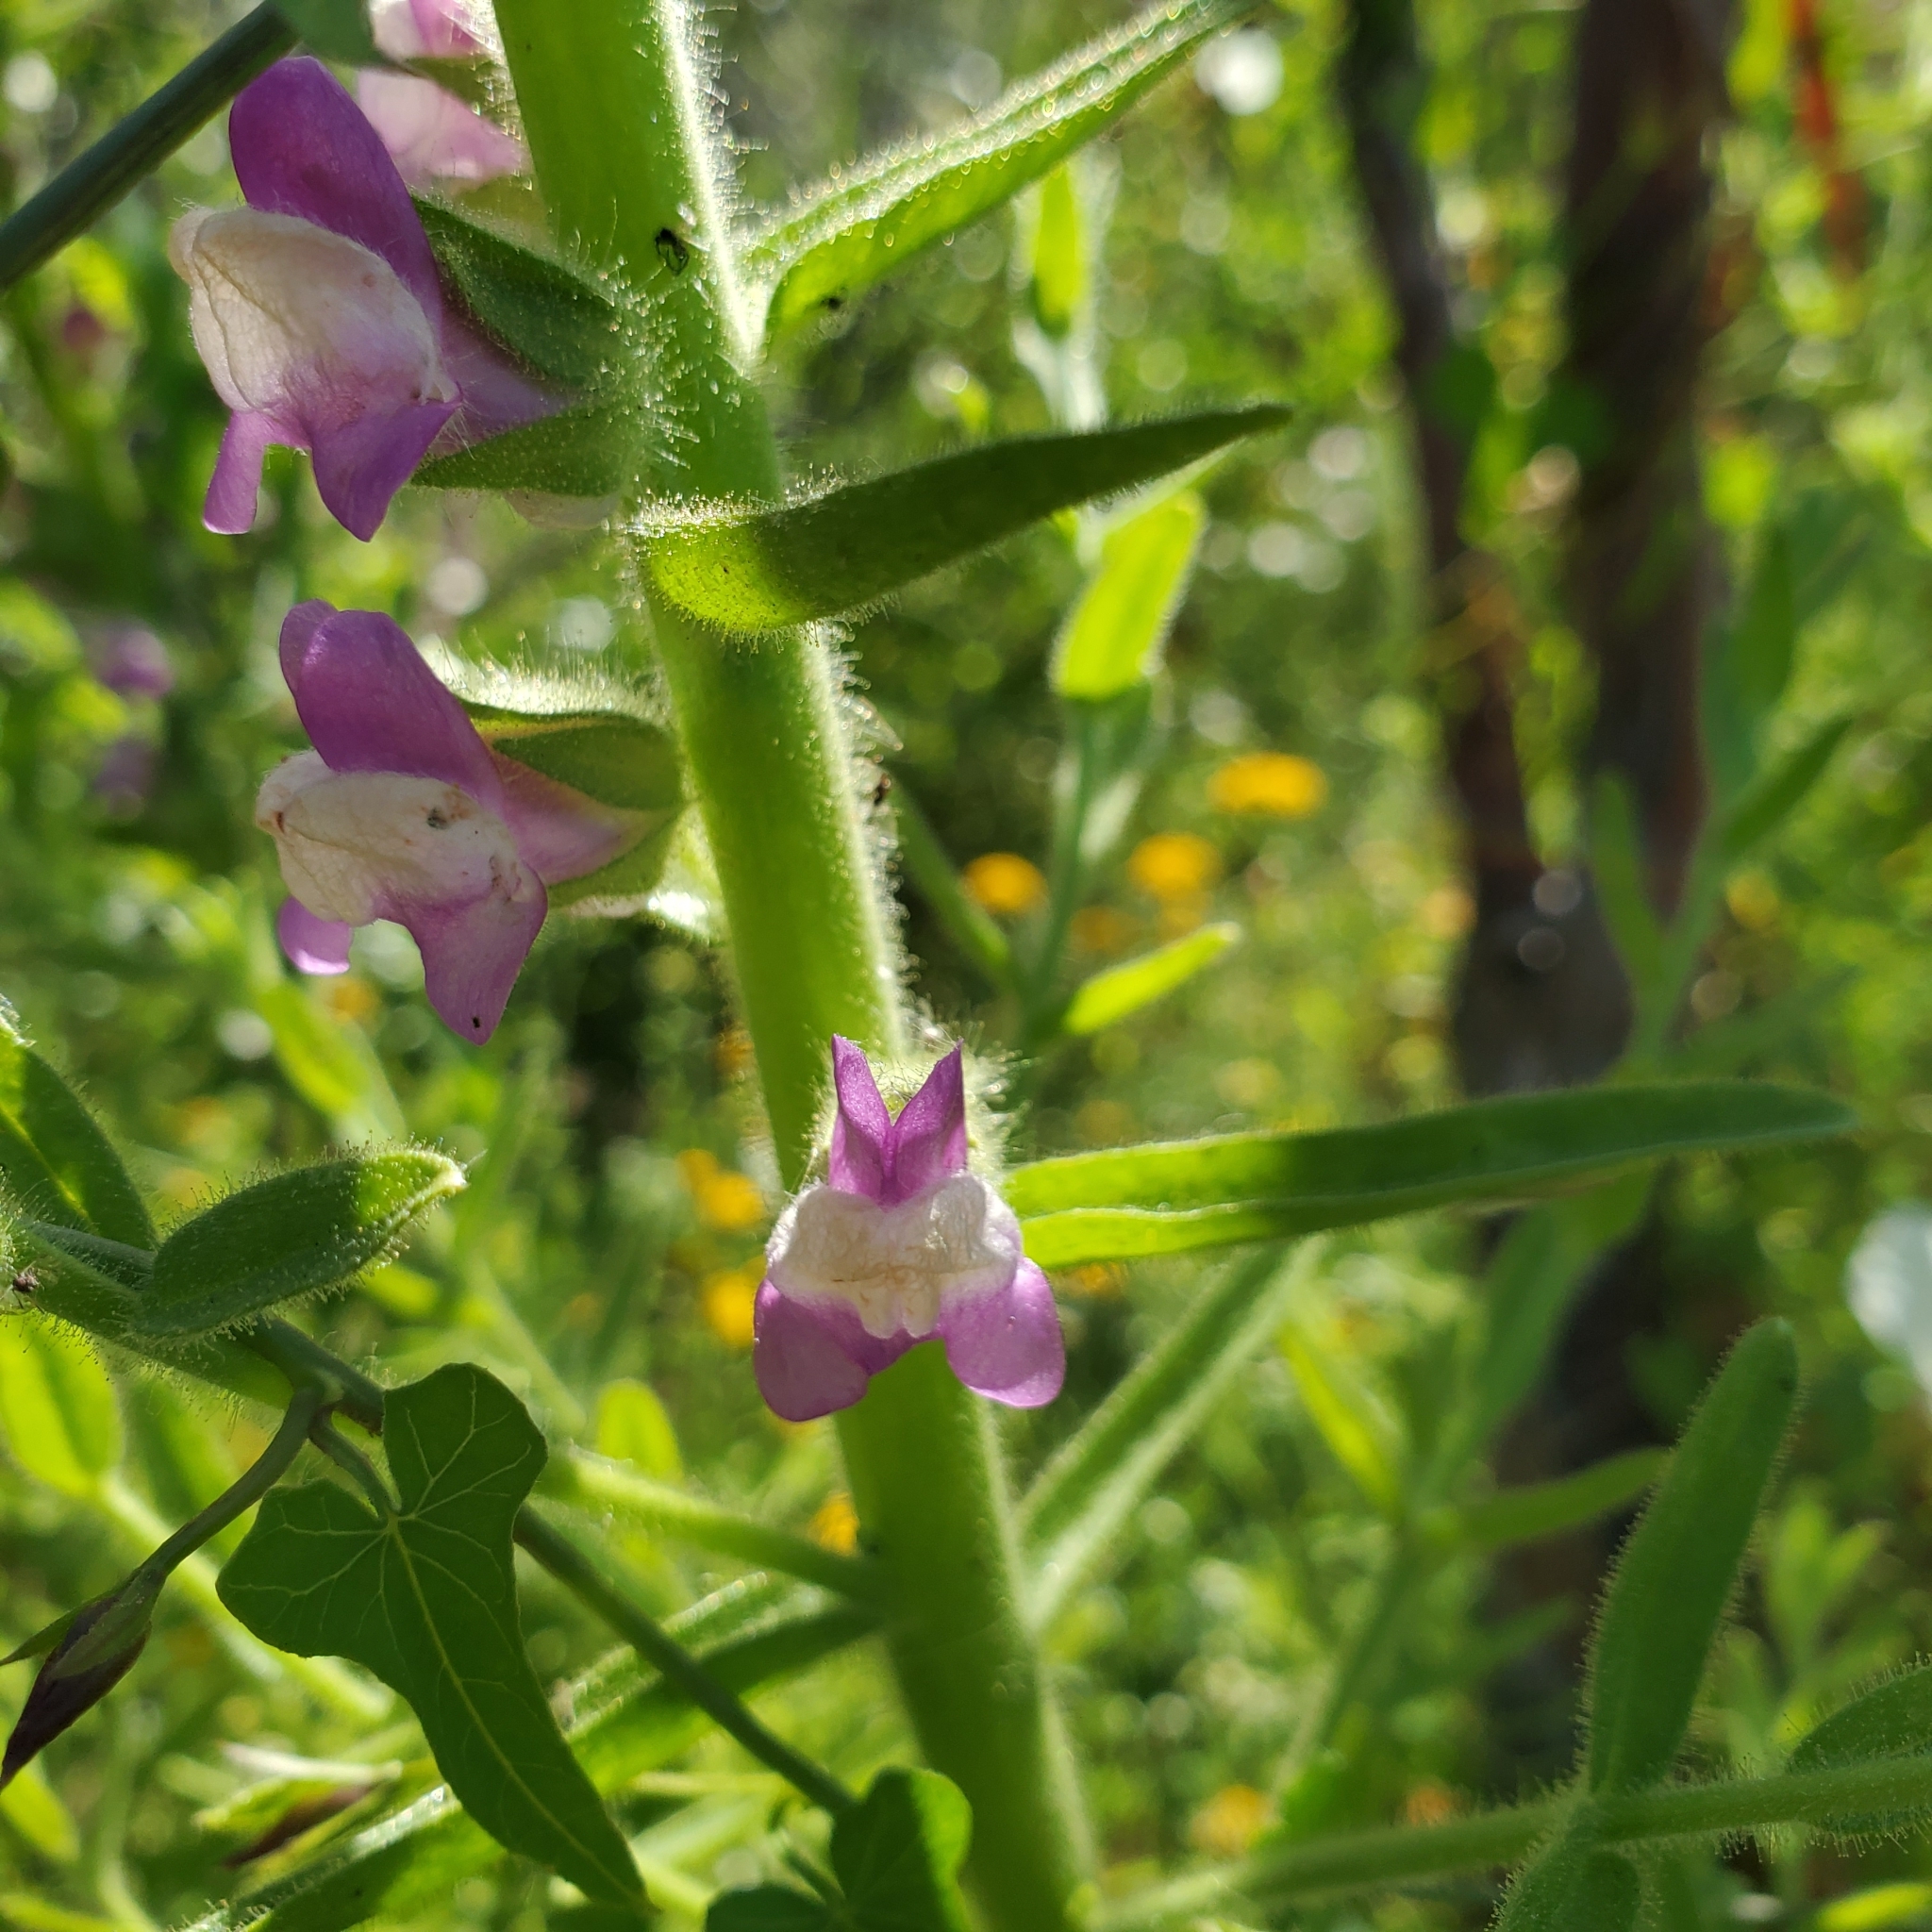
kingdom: Plantae
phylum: Tracheophyta
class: Magnoliopsida
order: Lamiales
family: Plantaginaceae
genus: Sairocarpus
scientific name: Sairocarpus multiflorus
